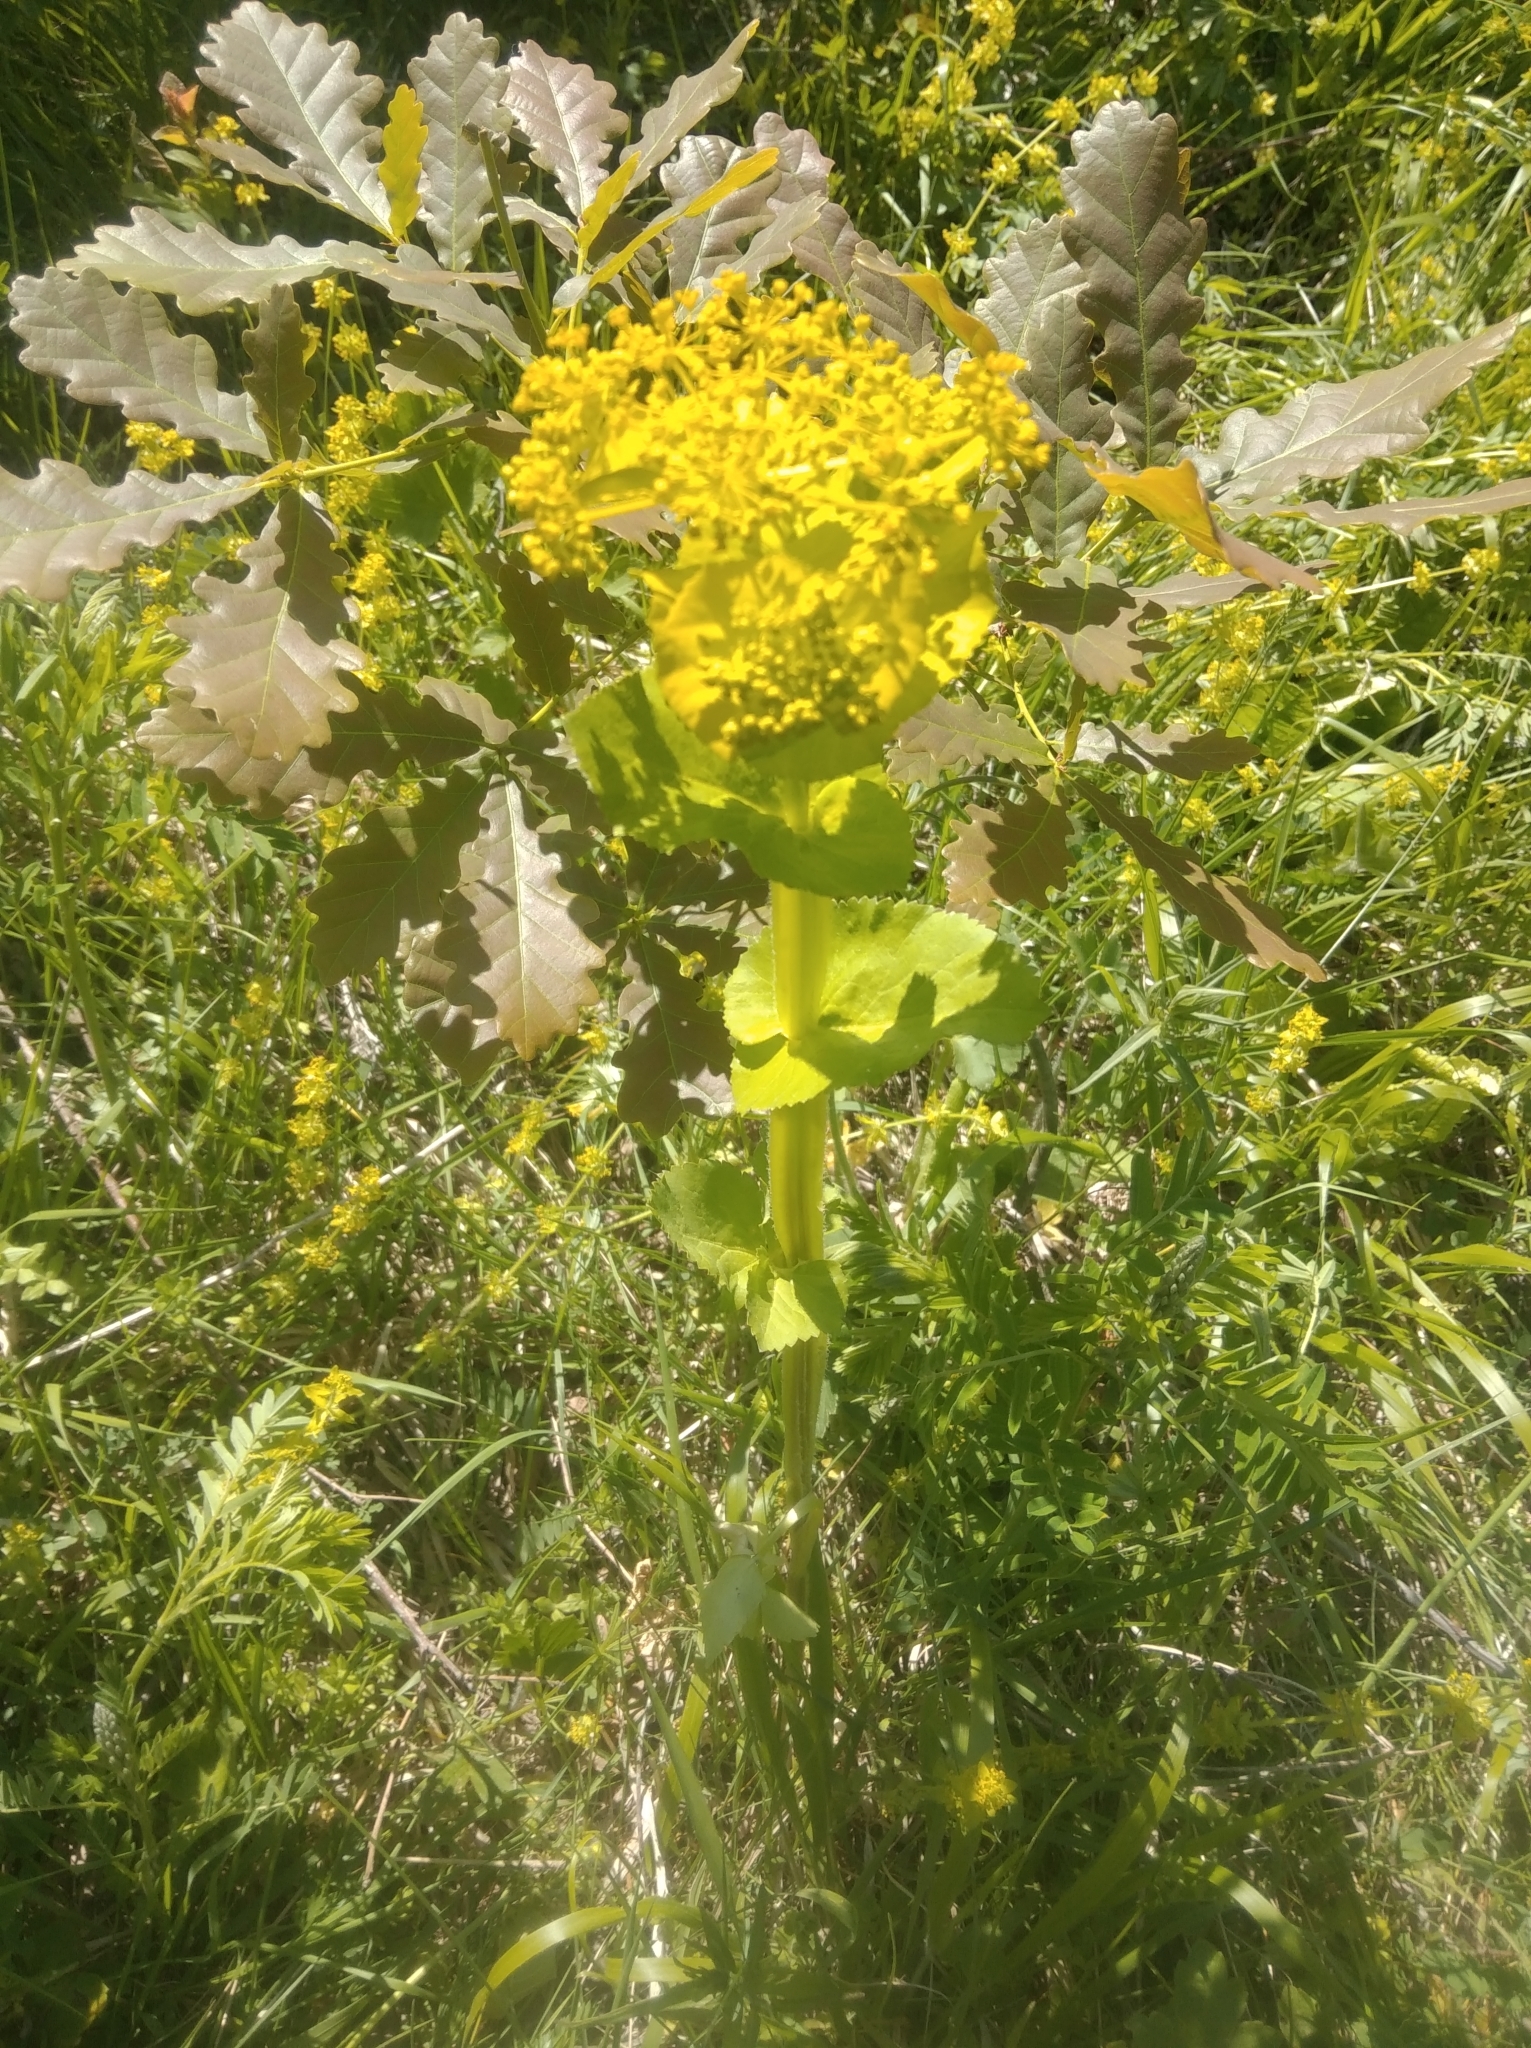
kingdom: Plantae
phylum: Tracheophyta
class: Magnoliopsida
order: Apiales
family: Apiaceae
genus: Smyrnium
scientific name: Smyrnium perfoliatum
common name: Perfoliate alexanders
